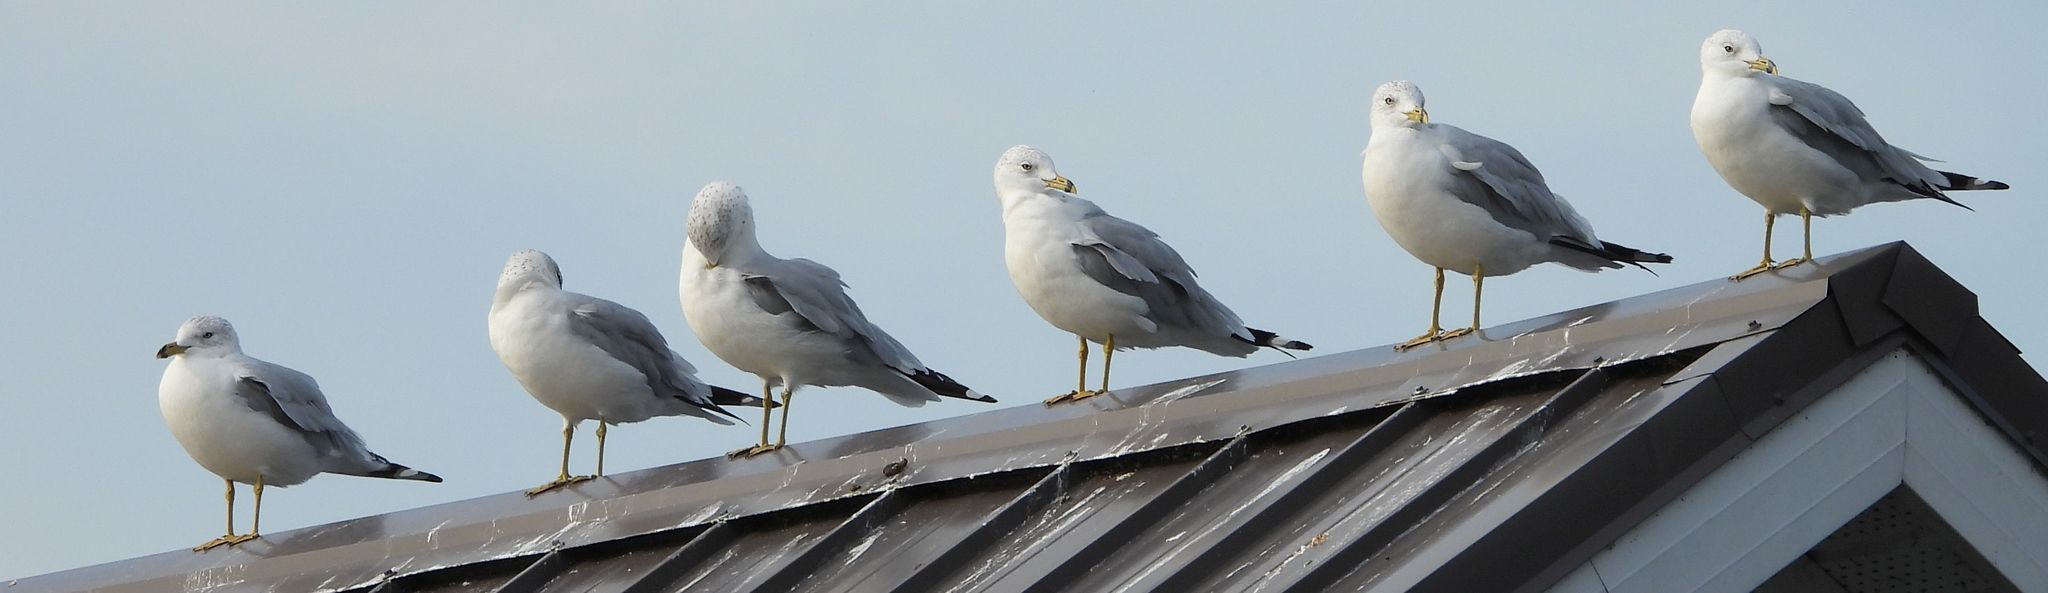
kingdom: Animalia
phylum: Chordata
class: Aves
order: Charadriiformes
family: Laridae
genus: Larus
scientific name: Larus delawarensis
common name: Ring-billed gull
